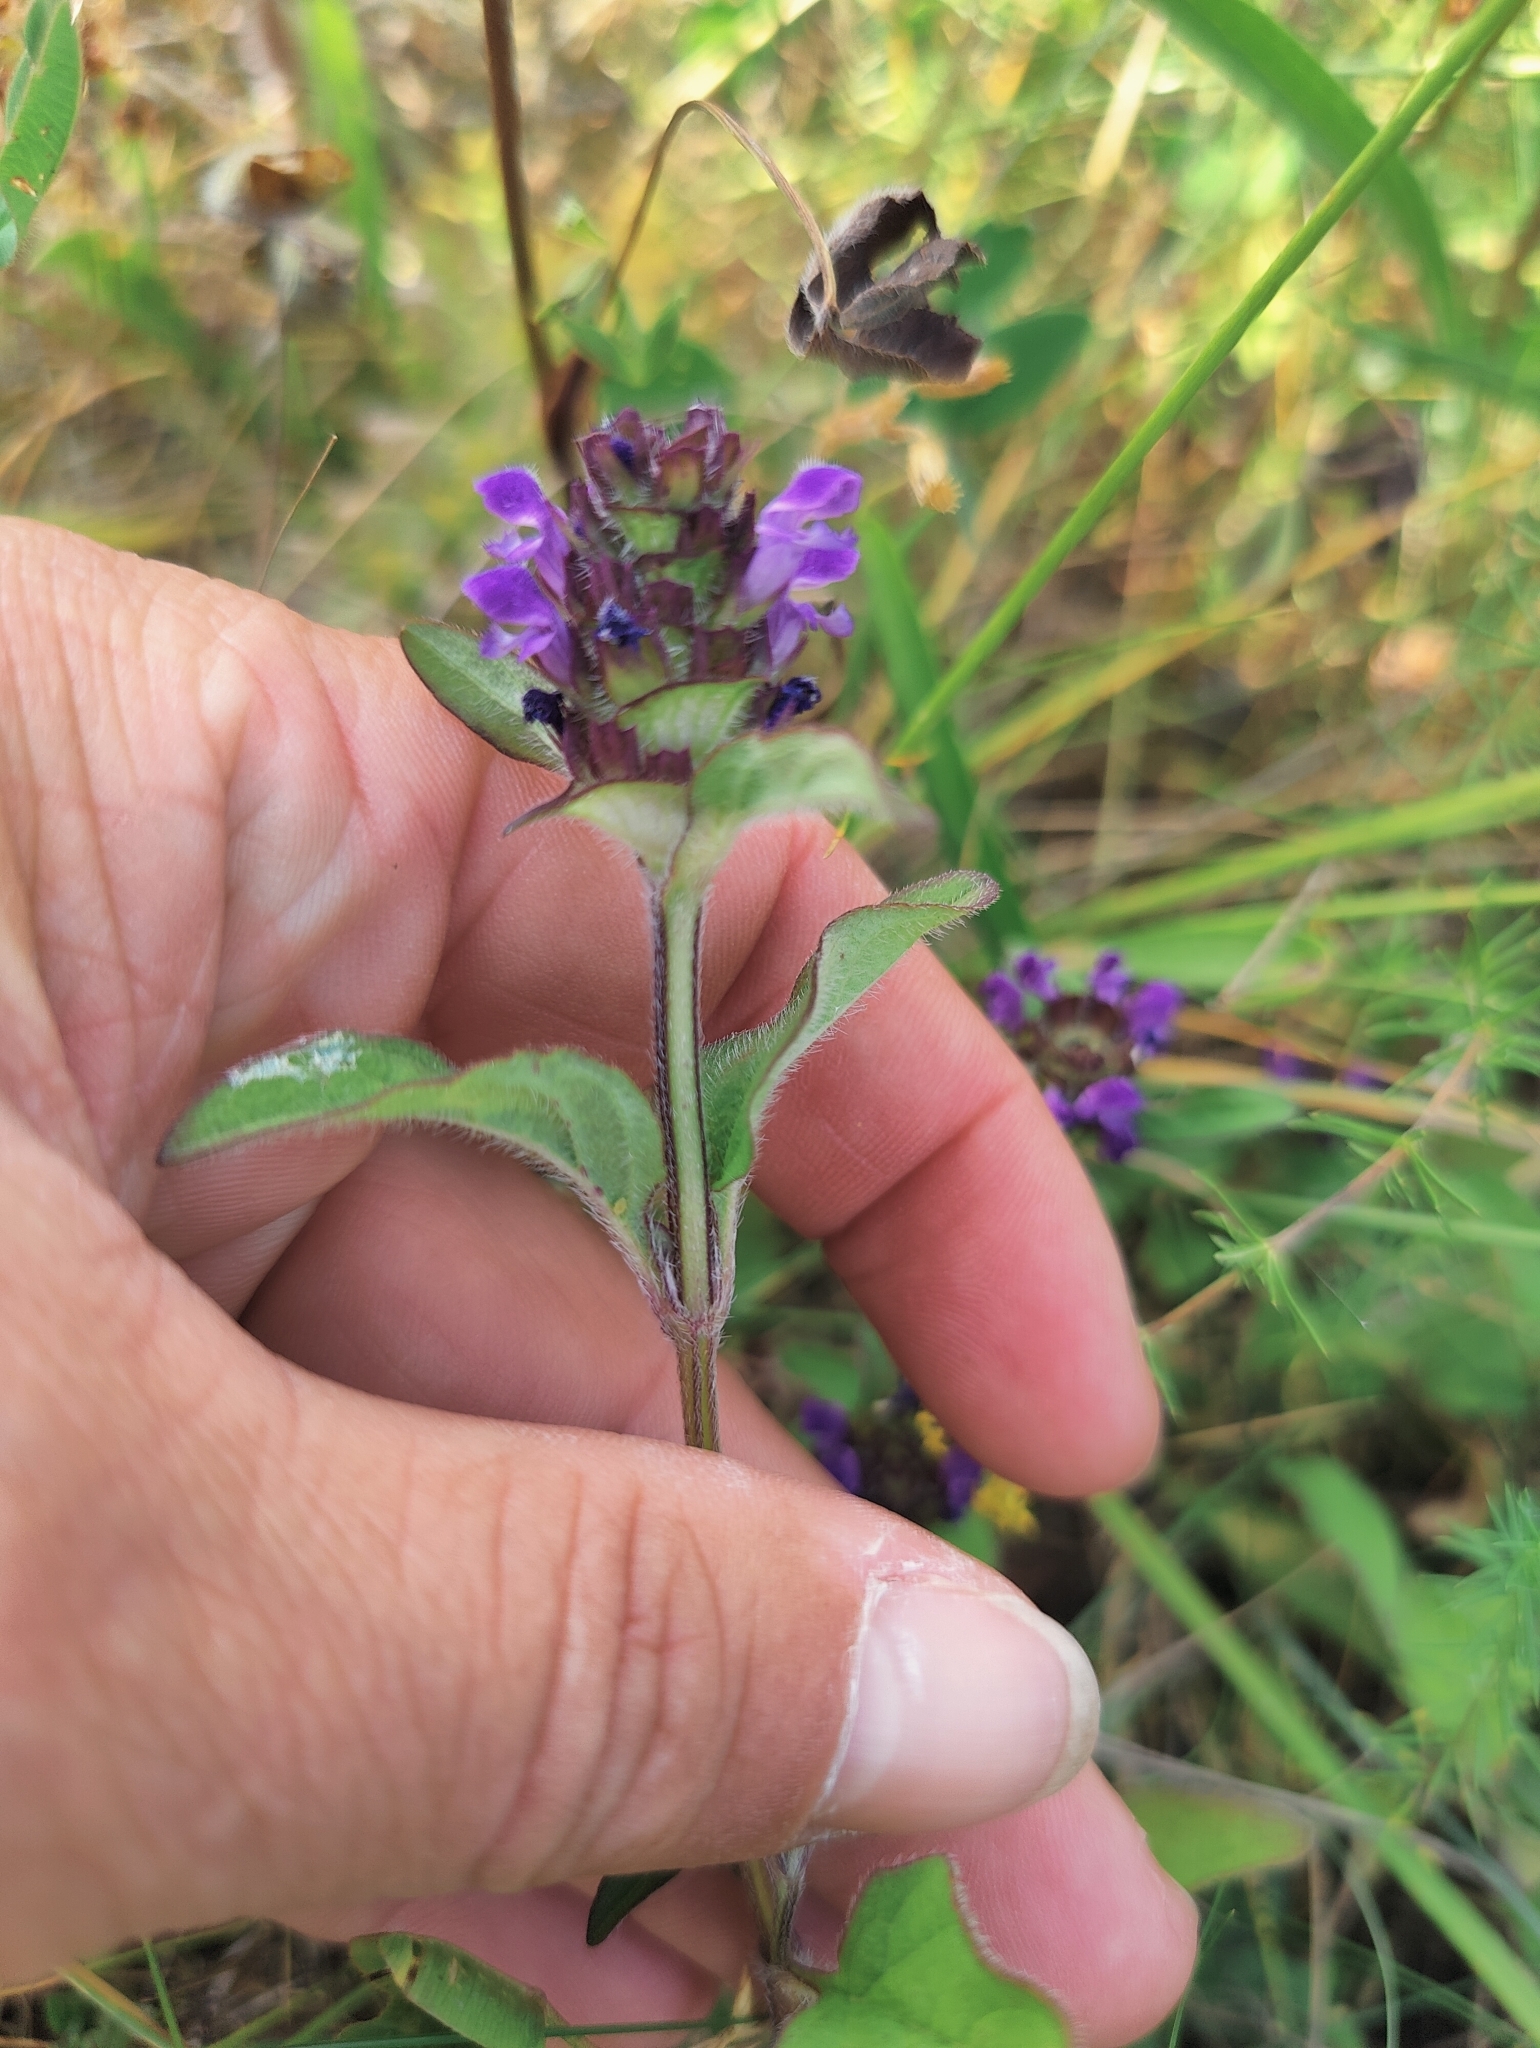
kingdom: Plantae
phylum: Tracheophyta
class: Magnoliopsida
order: Lamiales
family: Lamiaceae
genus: Prunella
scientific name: Prunella vulgaris
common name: Heal-all
